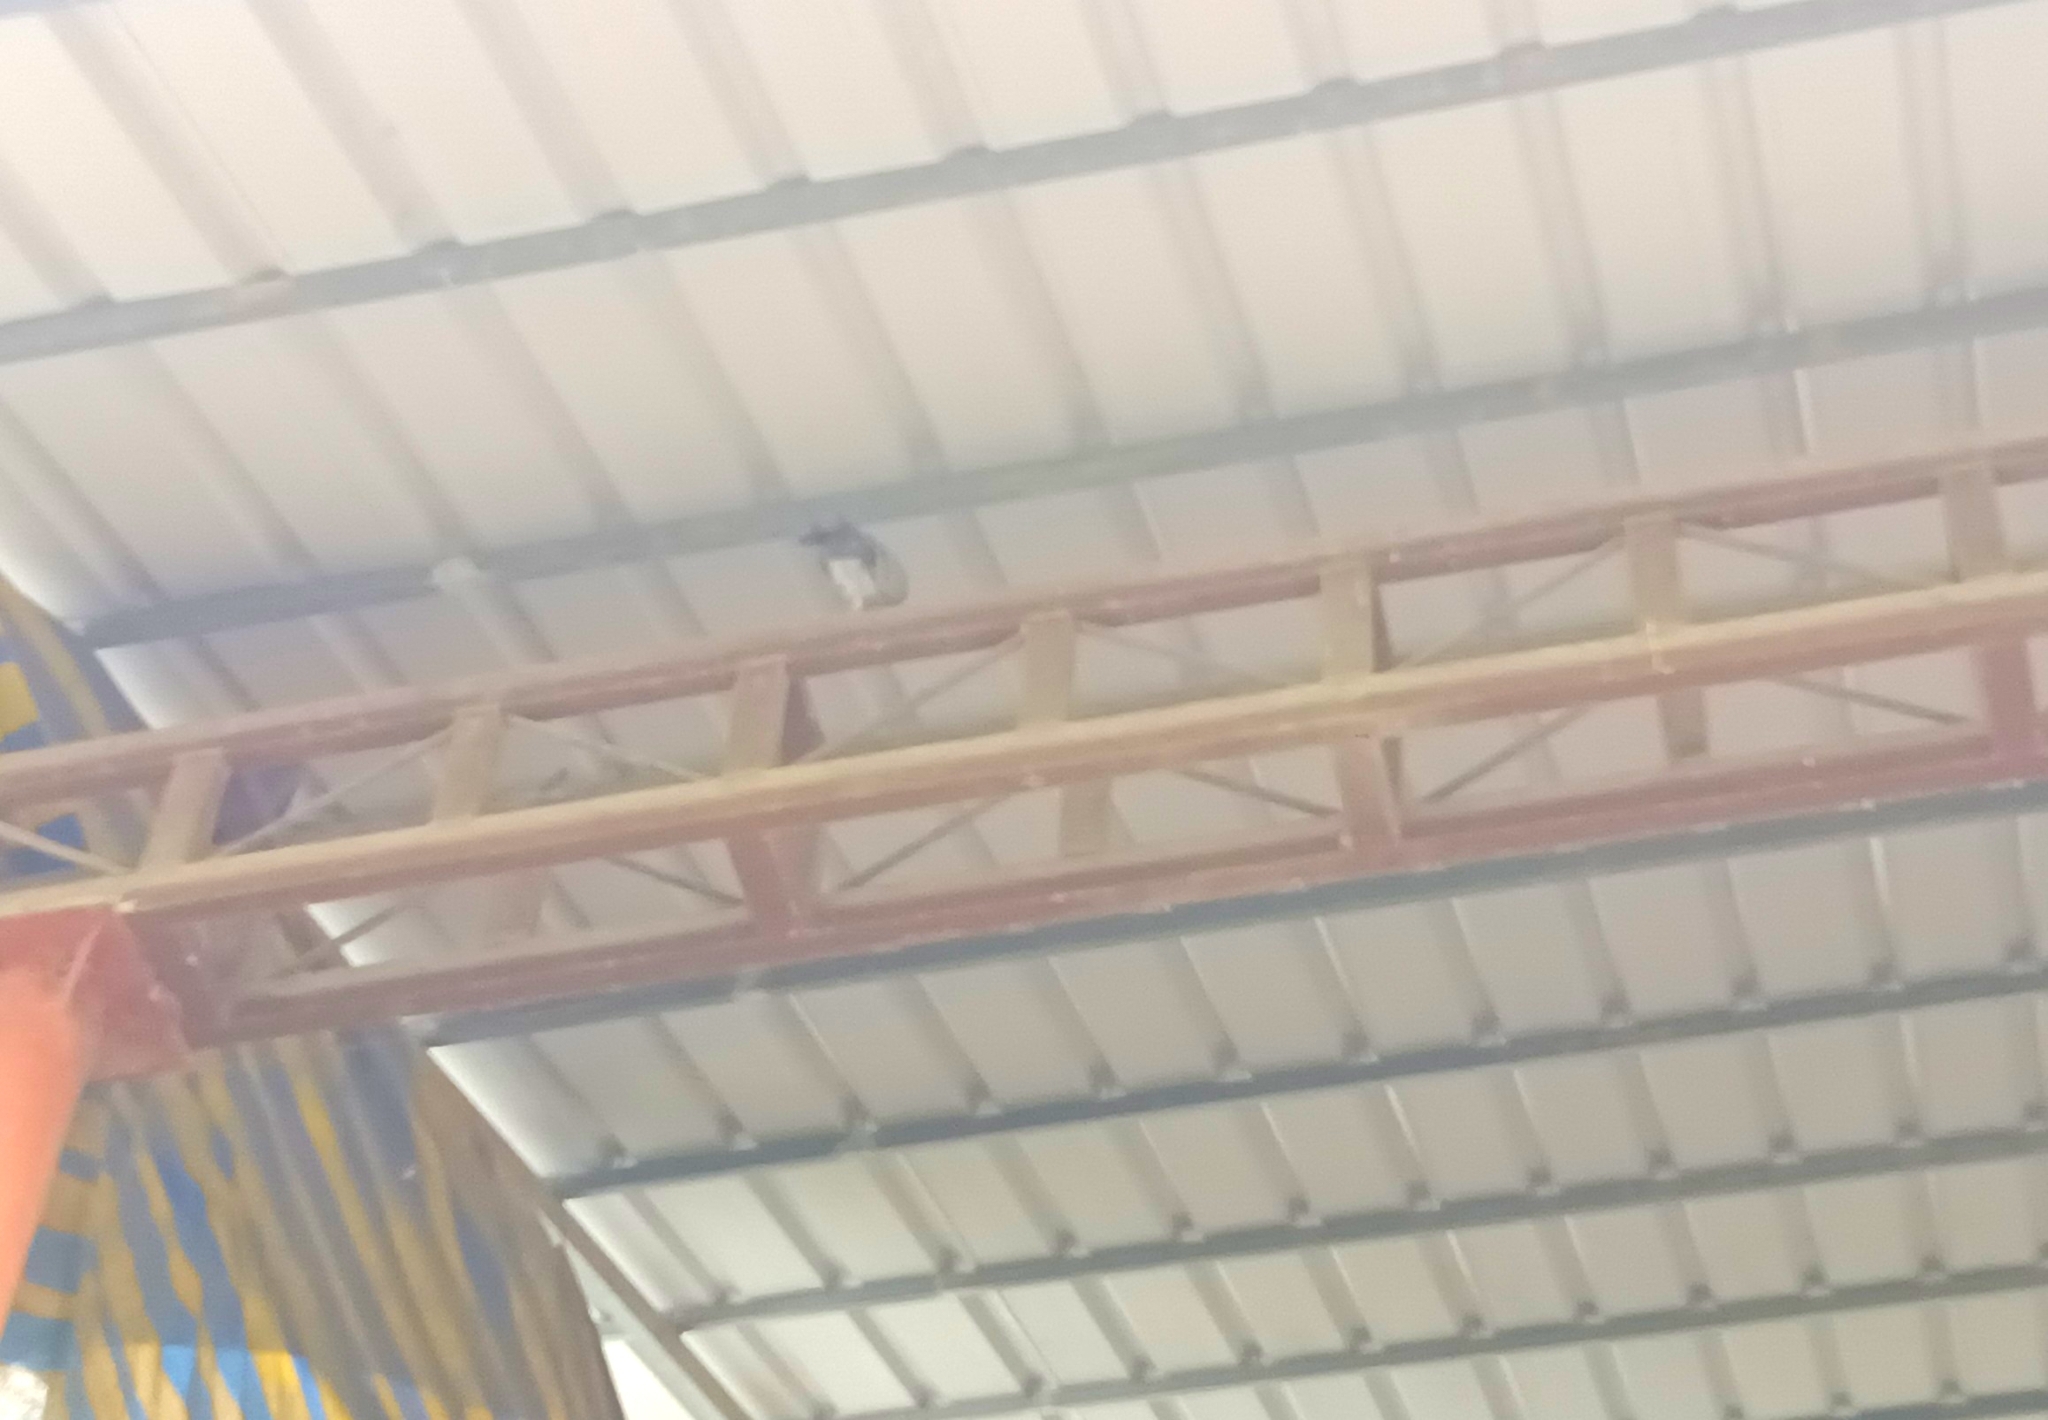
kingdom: Animalia
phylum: Chordata
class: Aves
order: Columbiformes
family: Columbidae
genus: Columba
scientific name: Columba livia
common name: Rock pigeon
